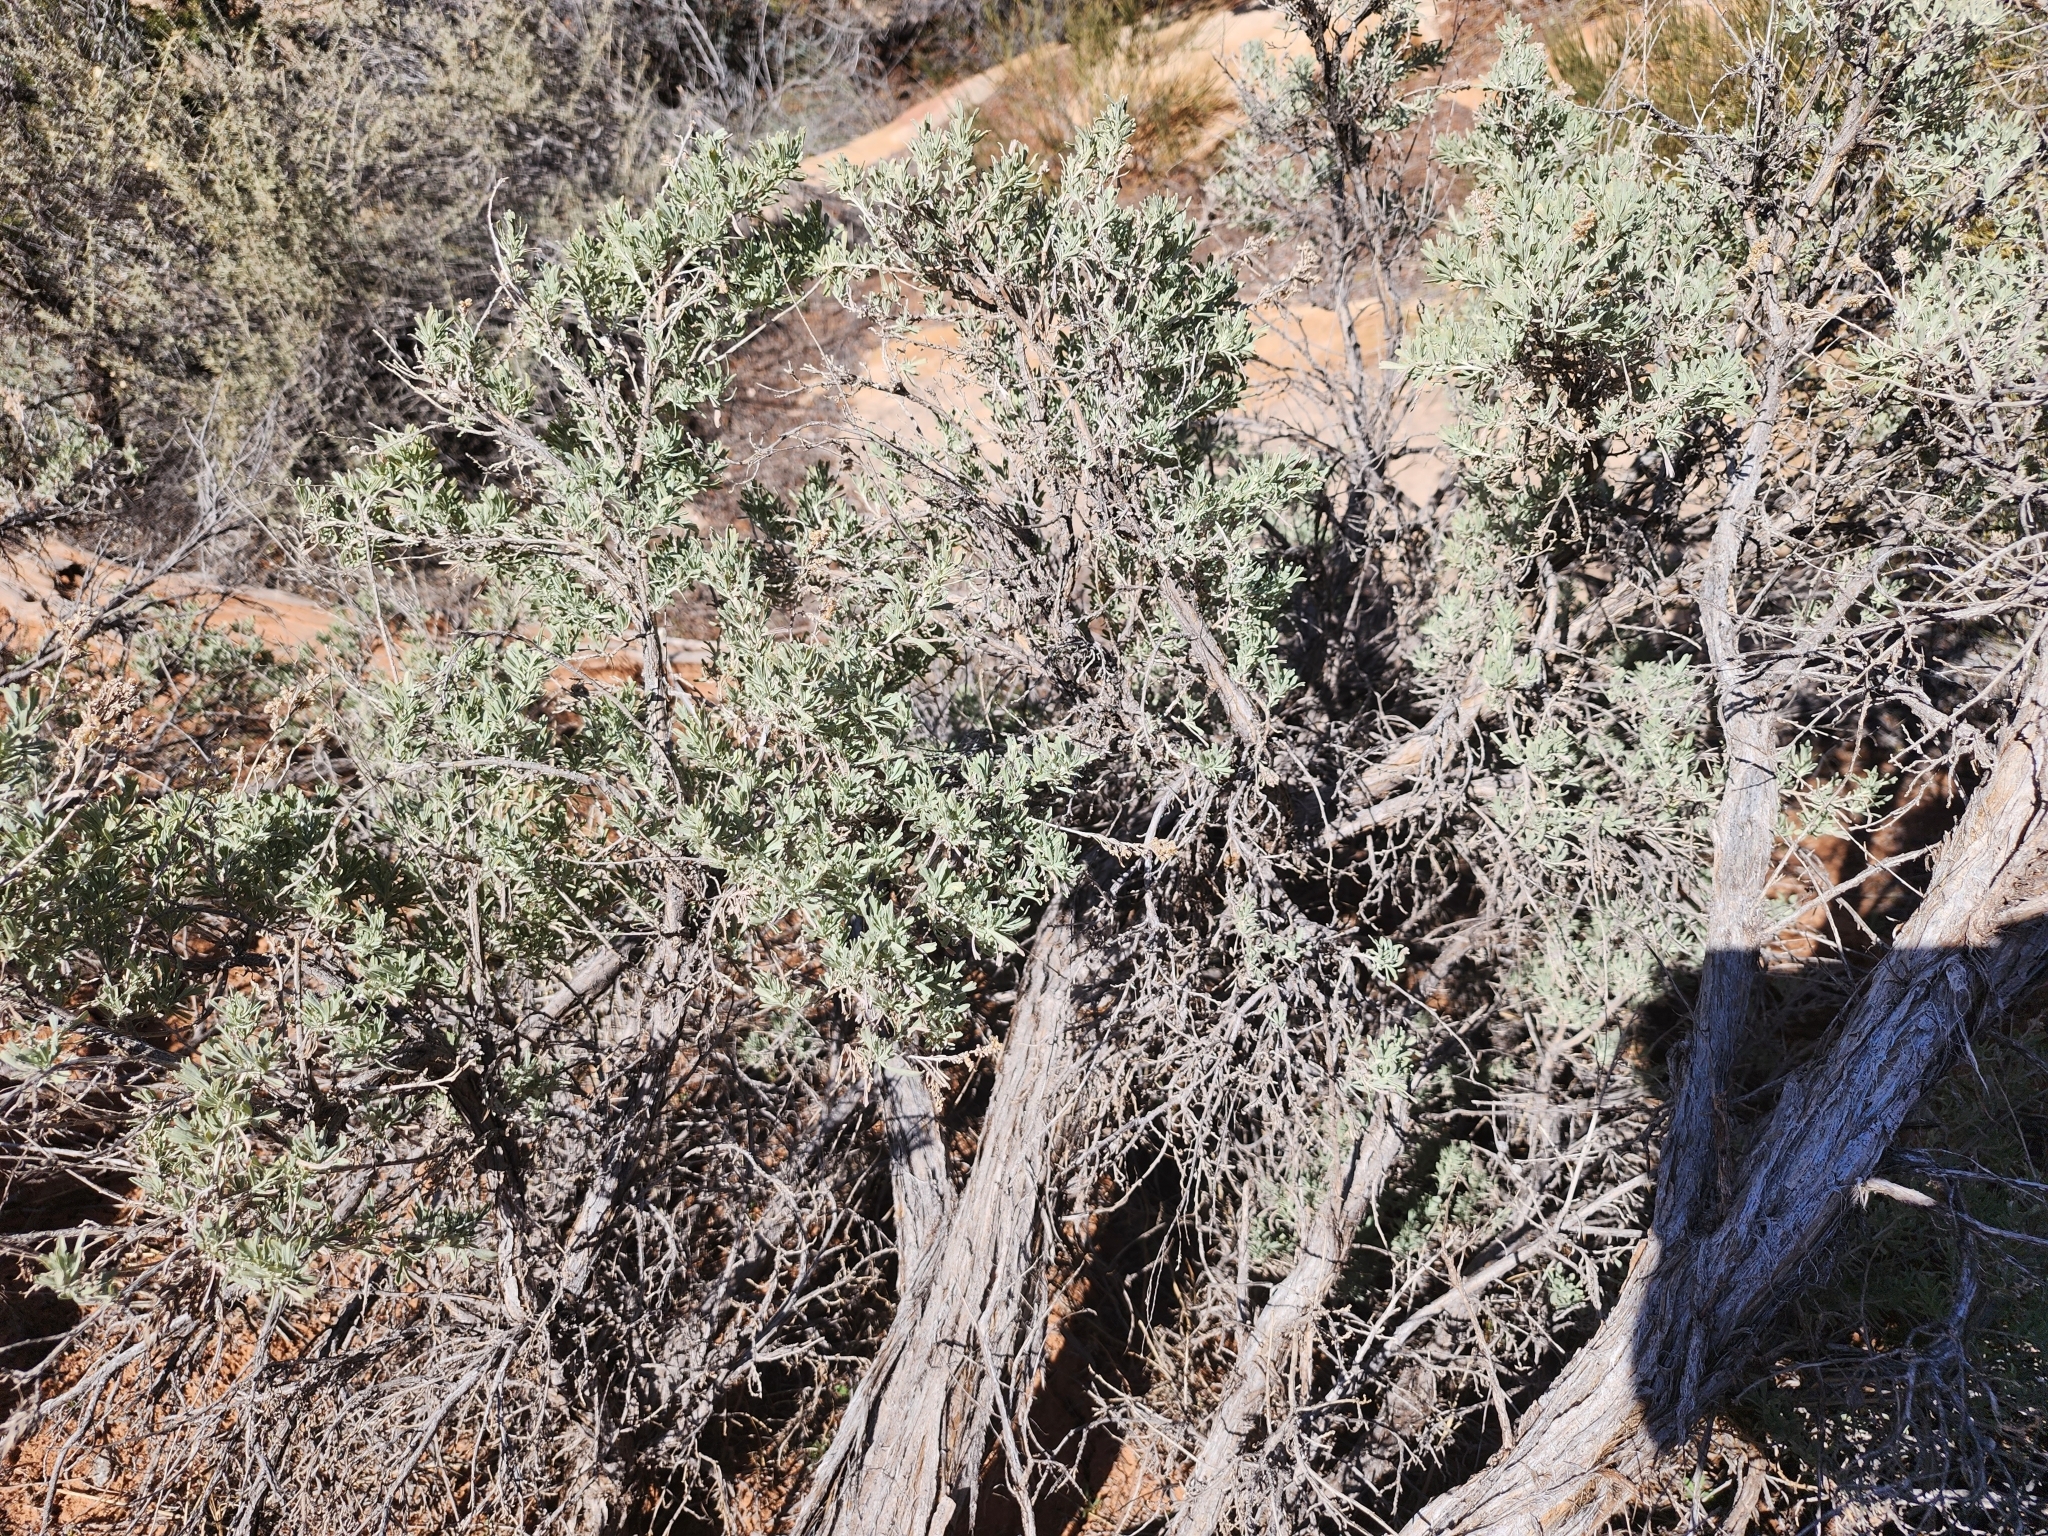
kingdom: Plantae
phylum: Tracheophyta
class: Magnoliopsida
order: Asterales
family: Asteraceae
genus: Artemisia
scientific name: Artemisia tridentata
